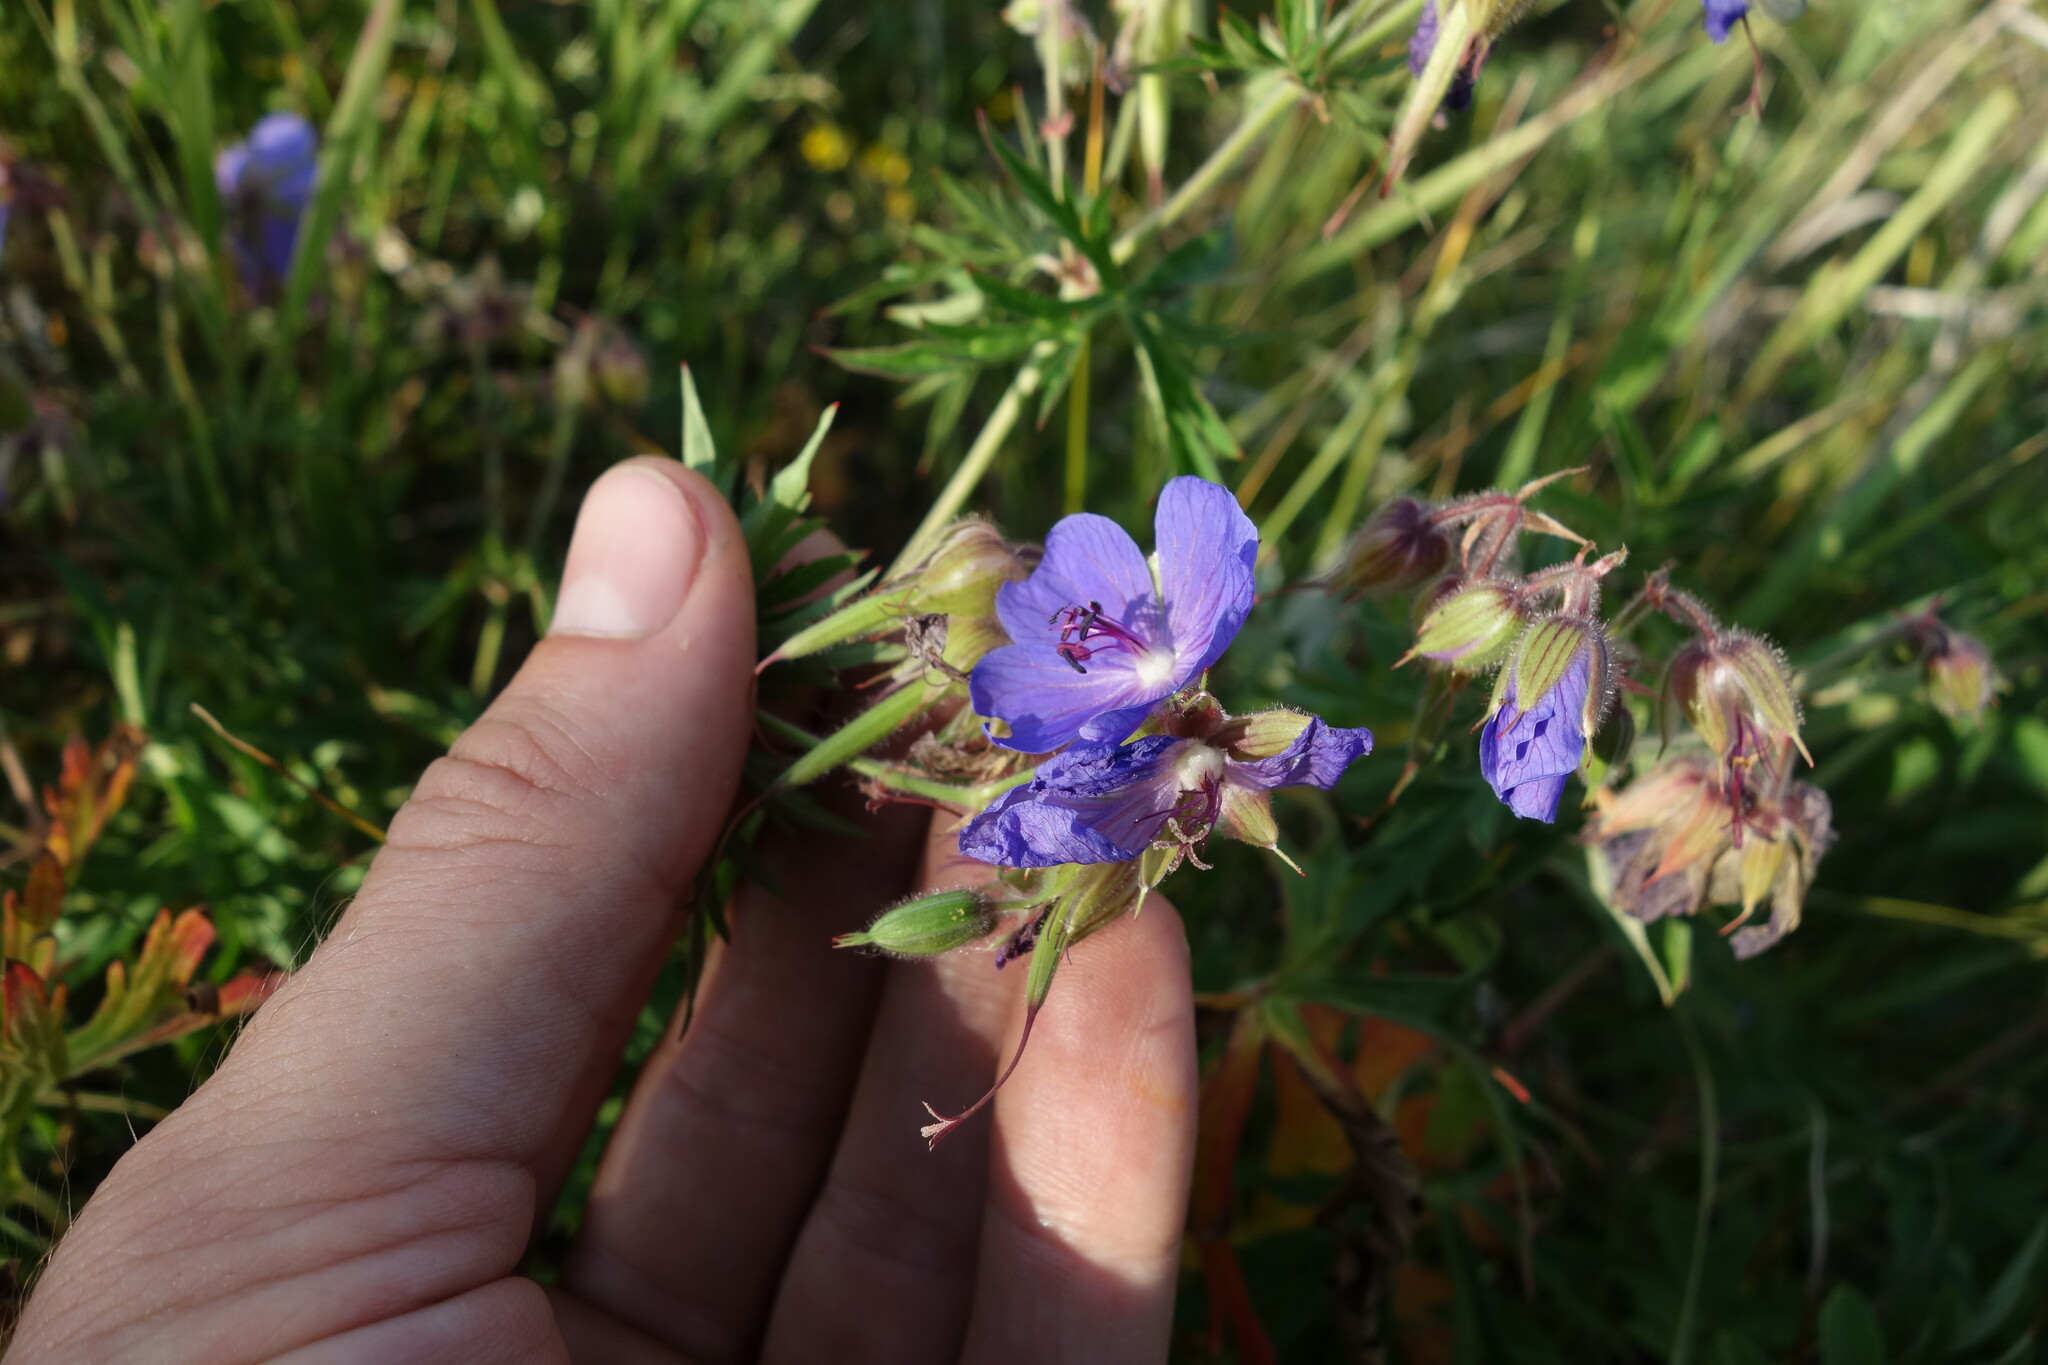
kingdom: Plantae
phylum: Tracheophyta
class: Magnoliopsida
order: Geraniales
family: Geraniaceae
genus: Geranium
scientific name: Geranium pratense
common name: Meadow crane's-bill
